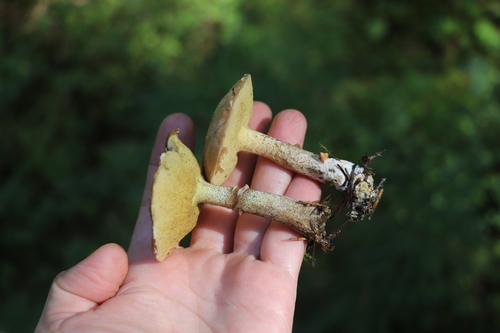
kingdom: Fungi
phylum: Basidiomycota
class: Agaricomycetes
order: Boletales
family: Suillaceae
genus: Suillus
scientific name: Suillus americanus
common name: Chicken fat mushroom
